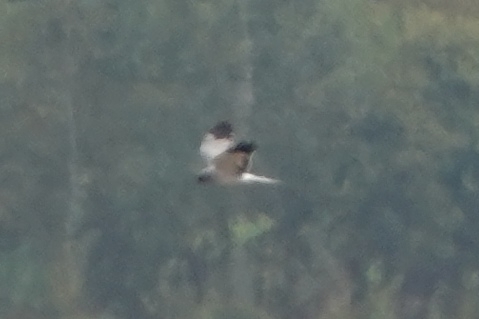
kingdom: Animalia
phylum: Chordata
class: Aves
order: Accipitriformes
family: Accipitridae
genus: Circus
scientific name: Circus cyaneus
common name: Hen harrier
